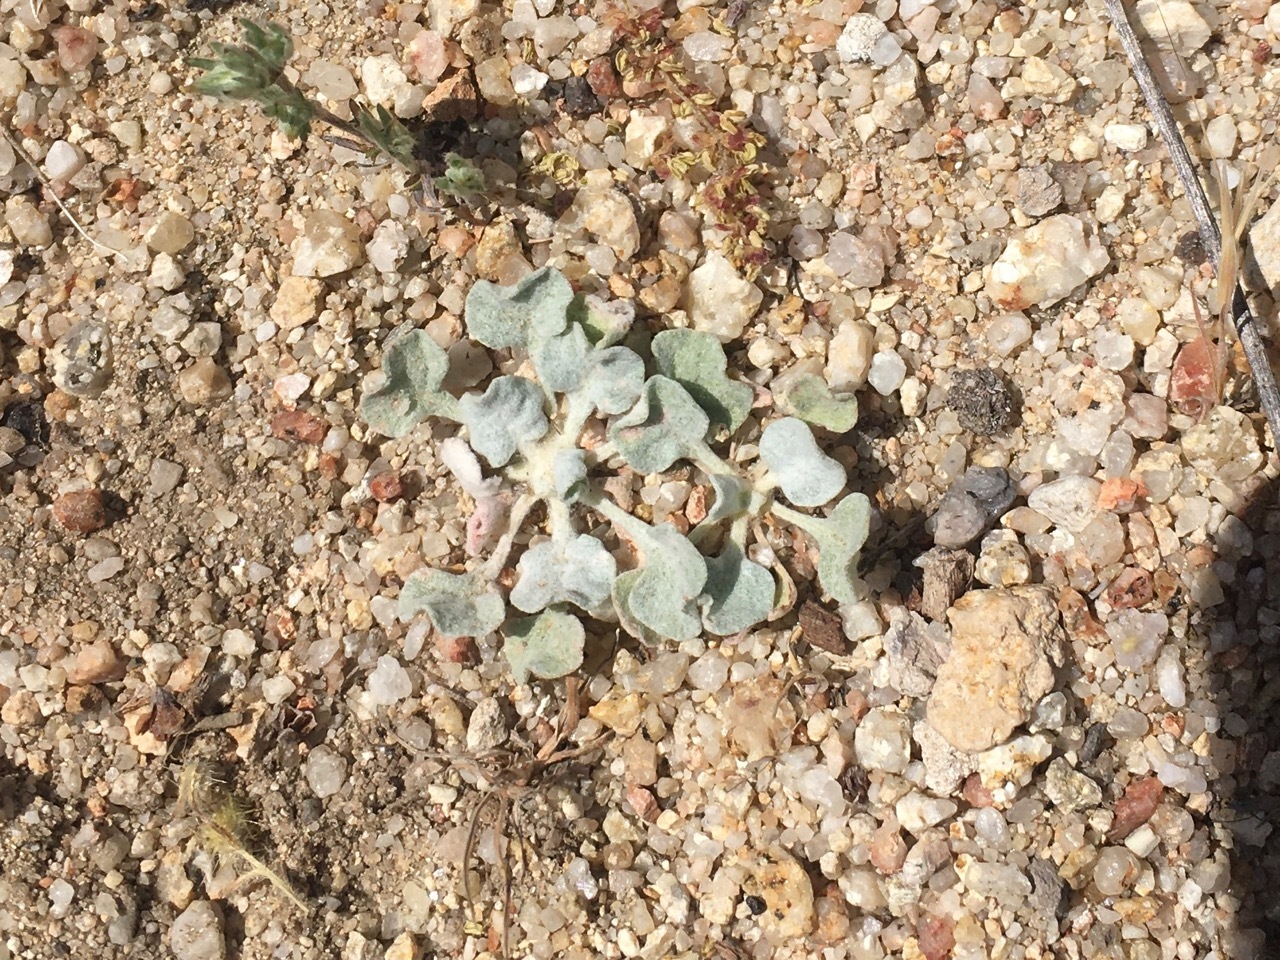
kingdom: Plantae
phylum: Tracheophyta
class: Magnoliopsida
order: Caryophyllales
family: Polygonaceae
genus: Eriogonum
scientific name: Eriogonum elegans
